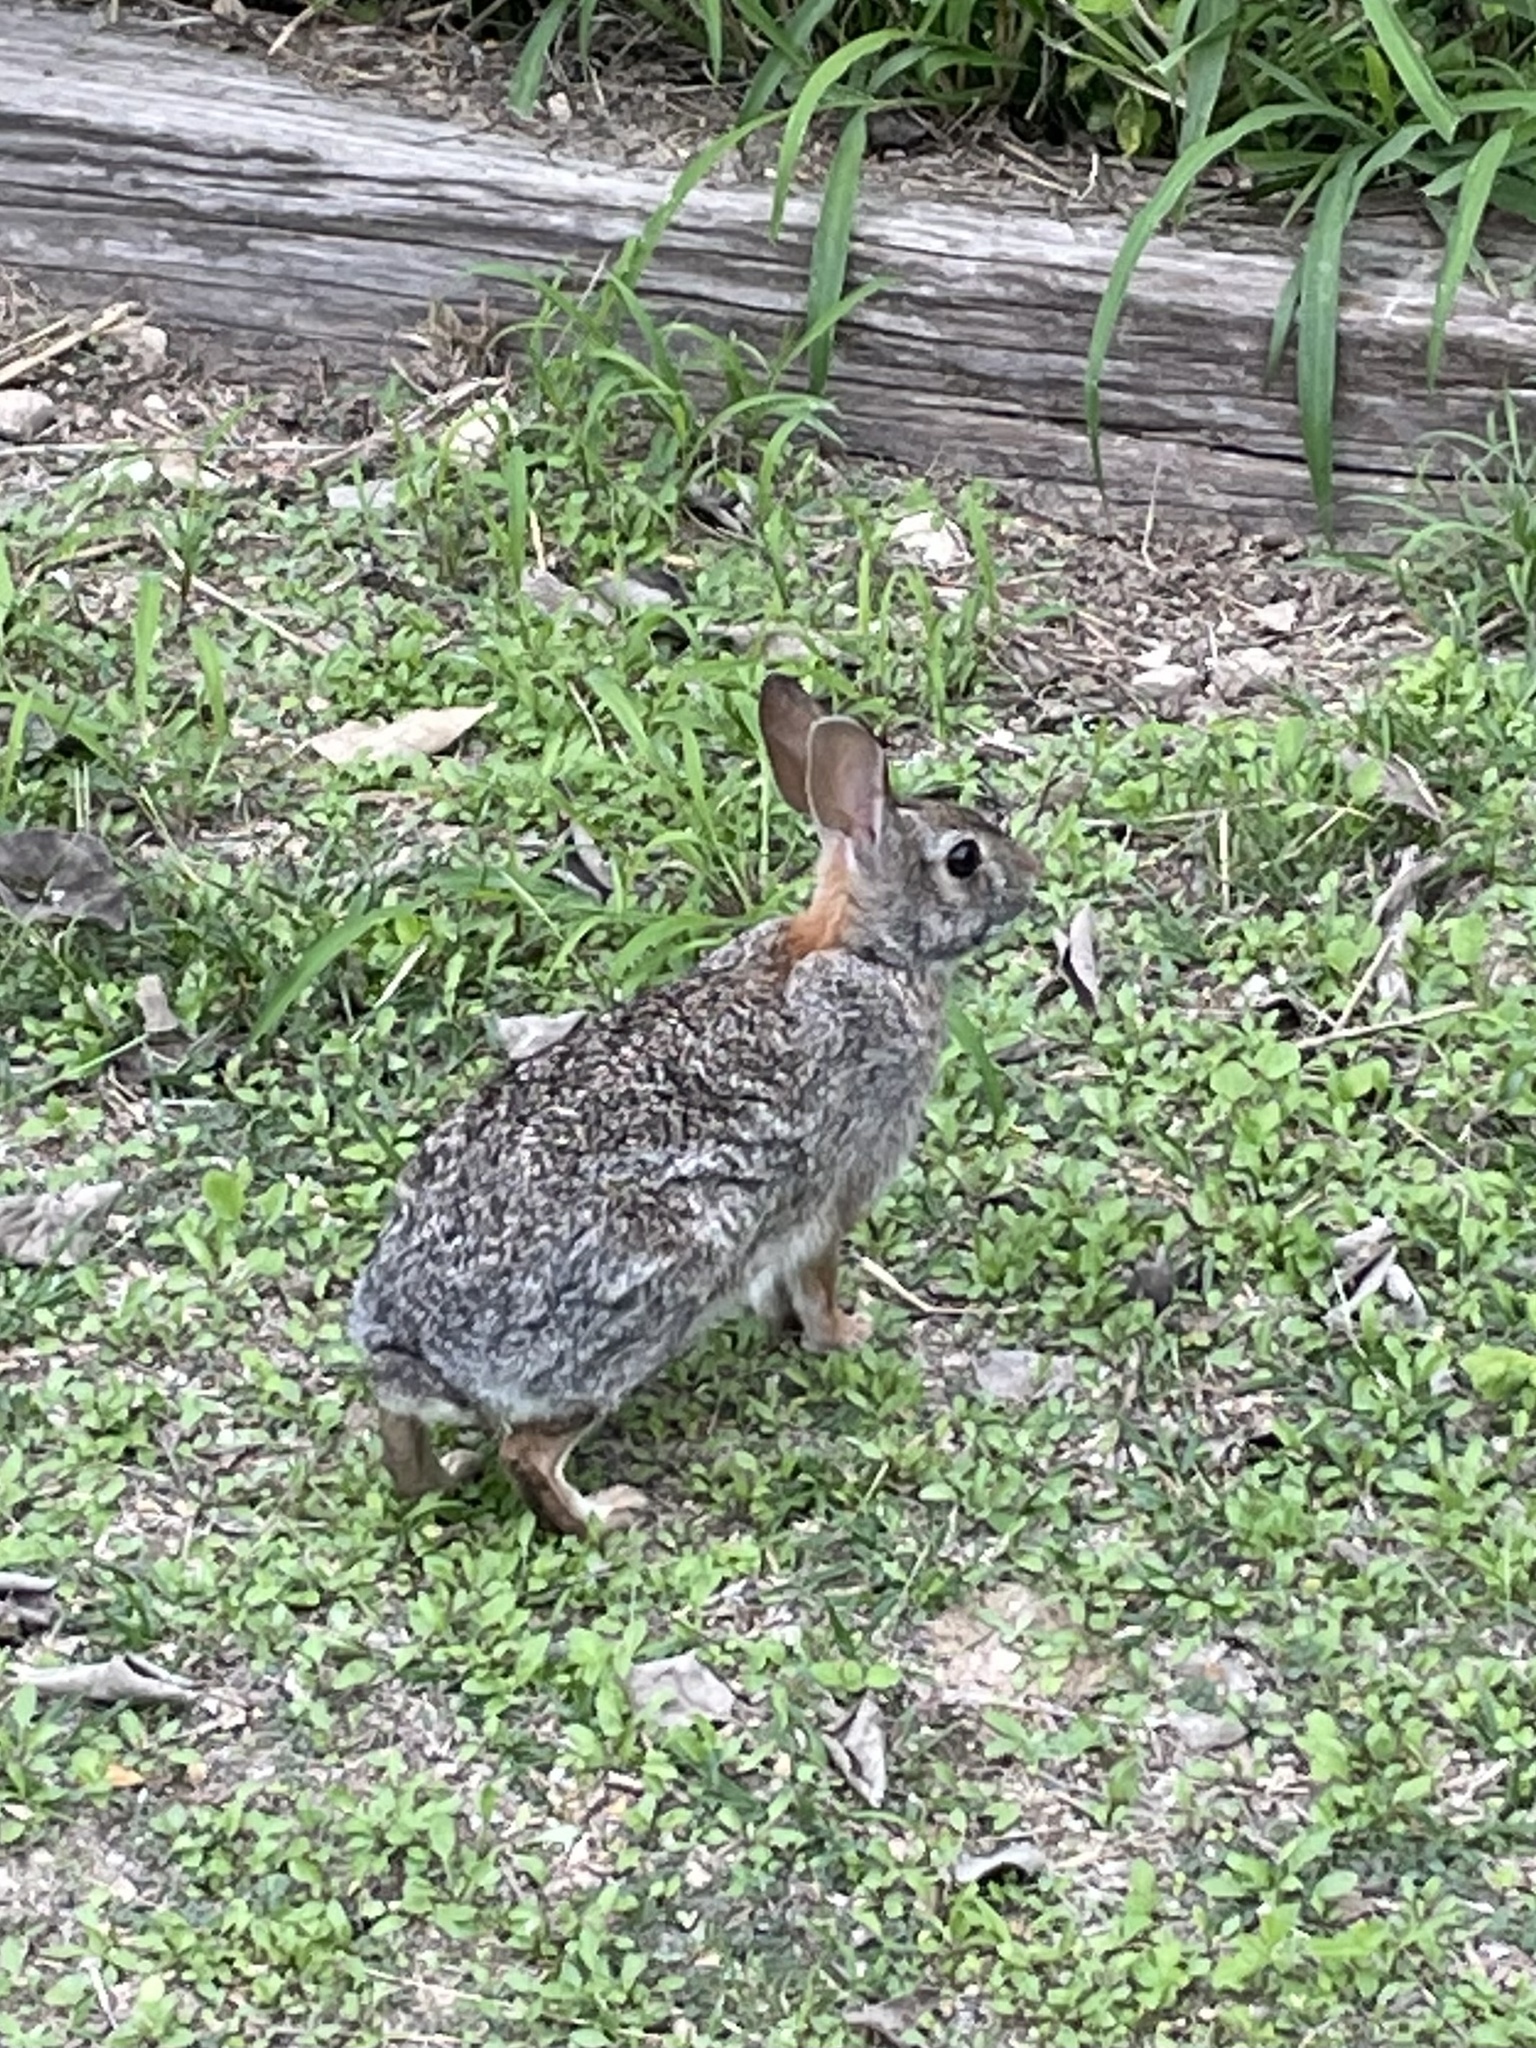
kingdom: Animalia
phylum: Chordata
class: Mammalia
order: Lagomorpha
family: Leporidae
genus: Sylvilagus
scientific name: Sylvilagus floridanus
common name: Eastern cottontail
